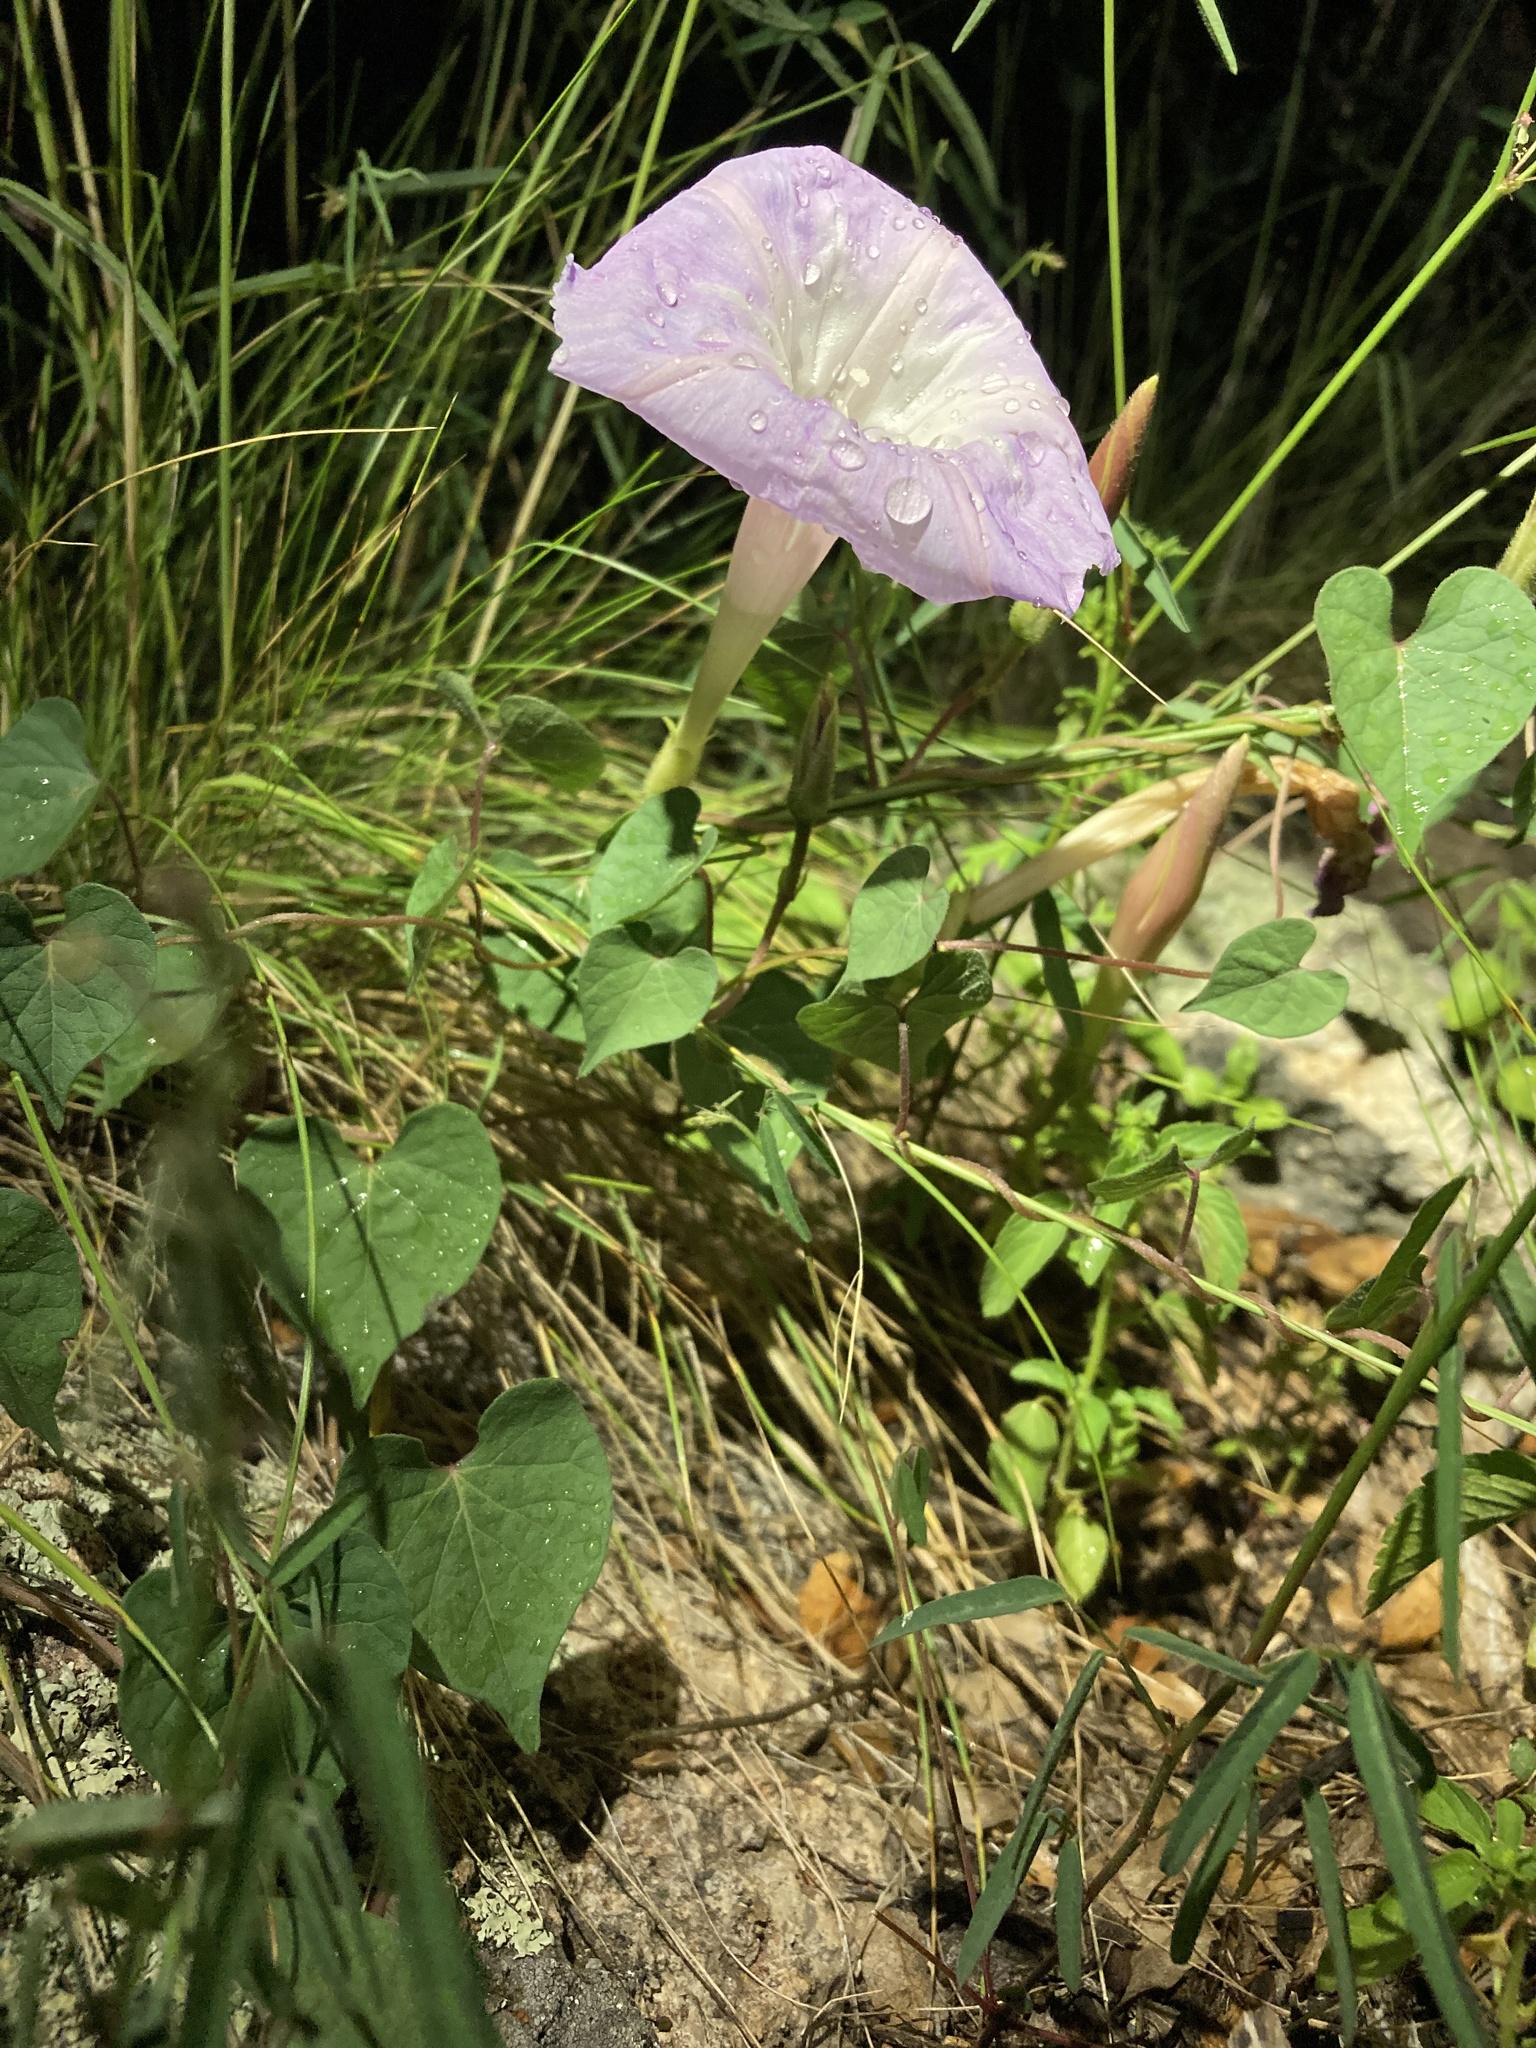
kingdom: Plantae
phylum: Tracheophyta
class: Magnoliopsida
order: Solanales
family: Convolvulaceae
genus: Ipomoea
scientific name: Ipomoea gilana
